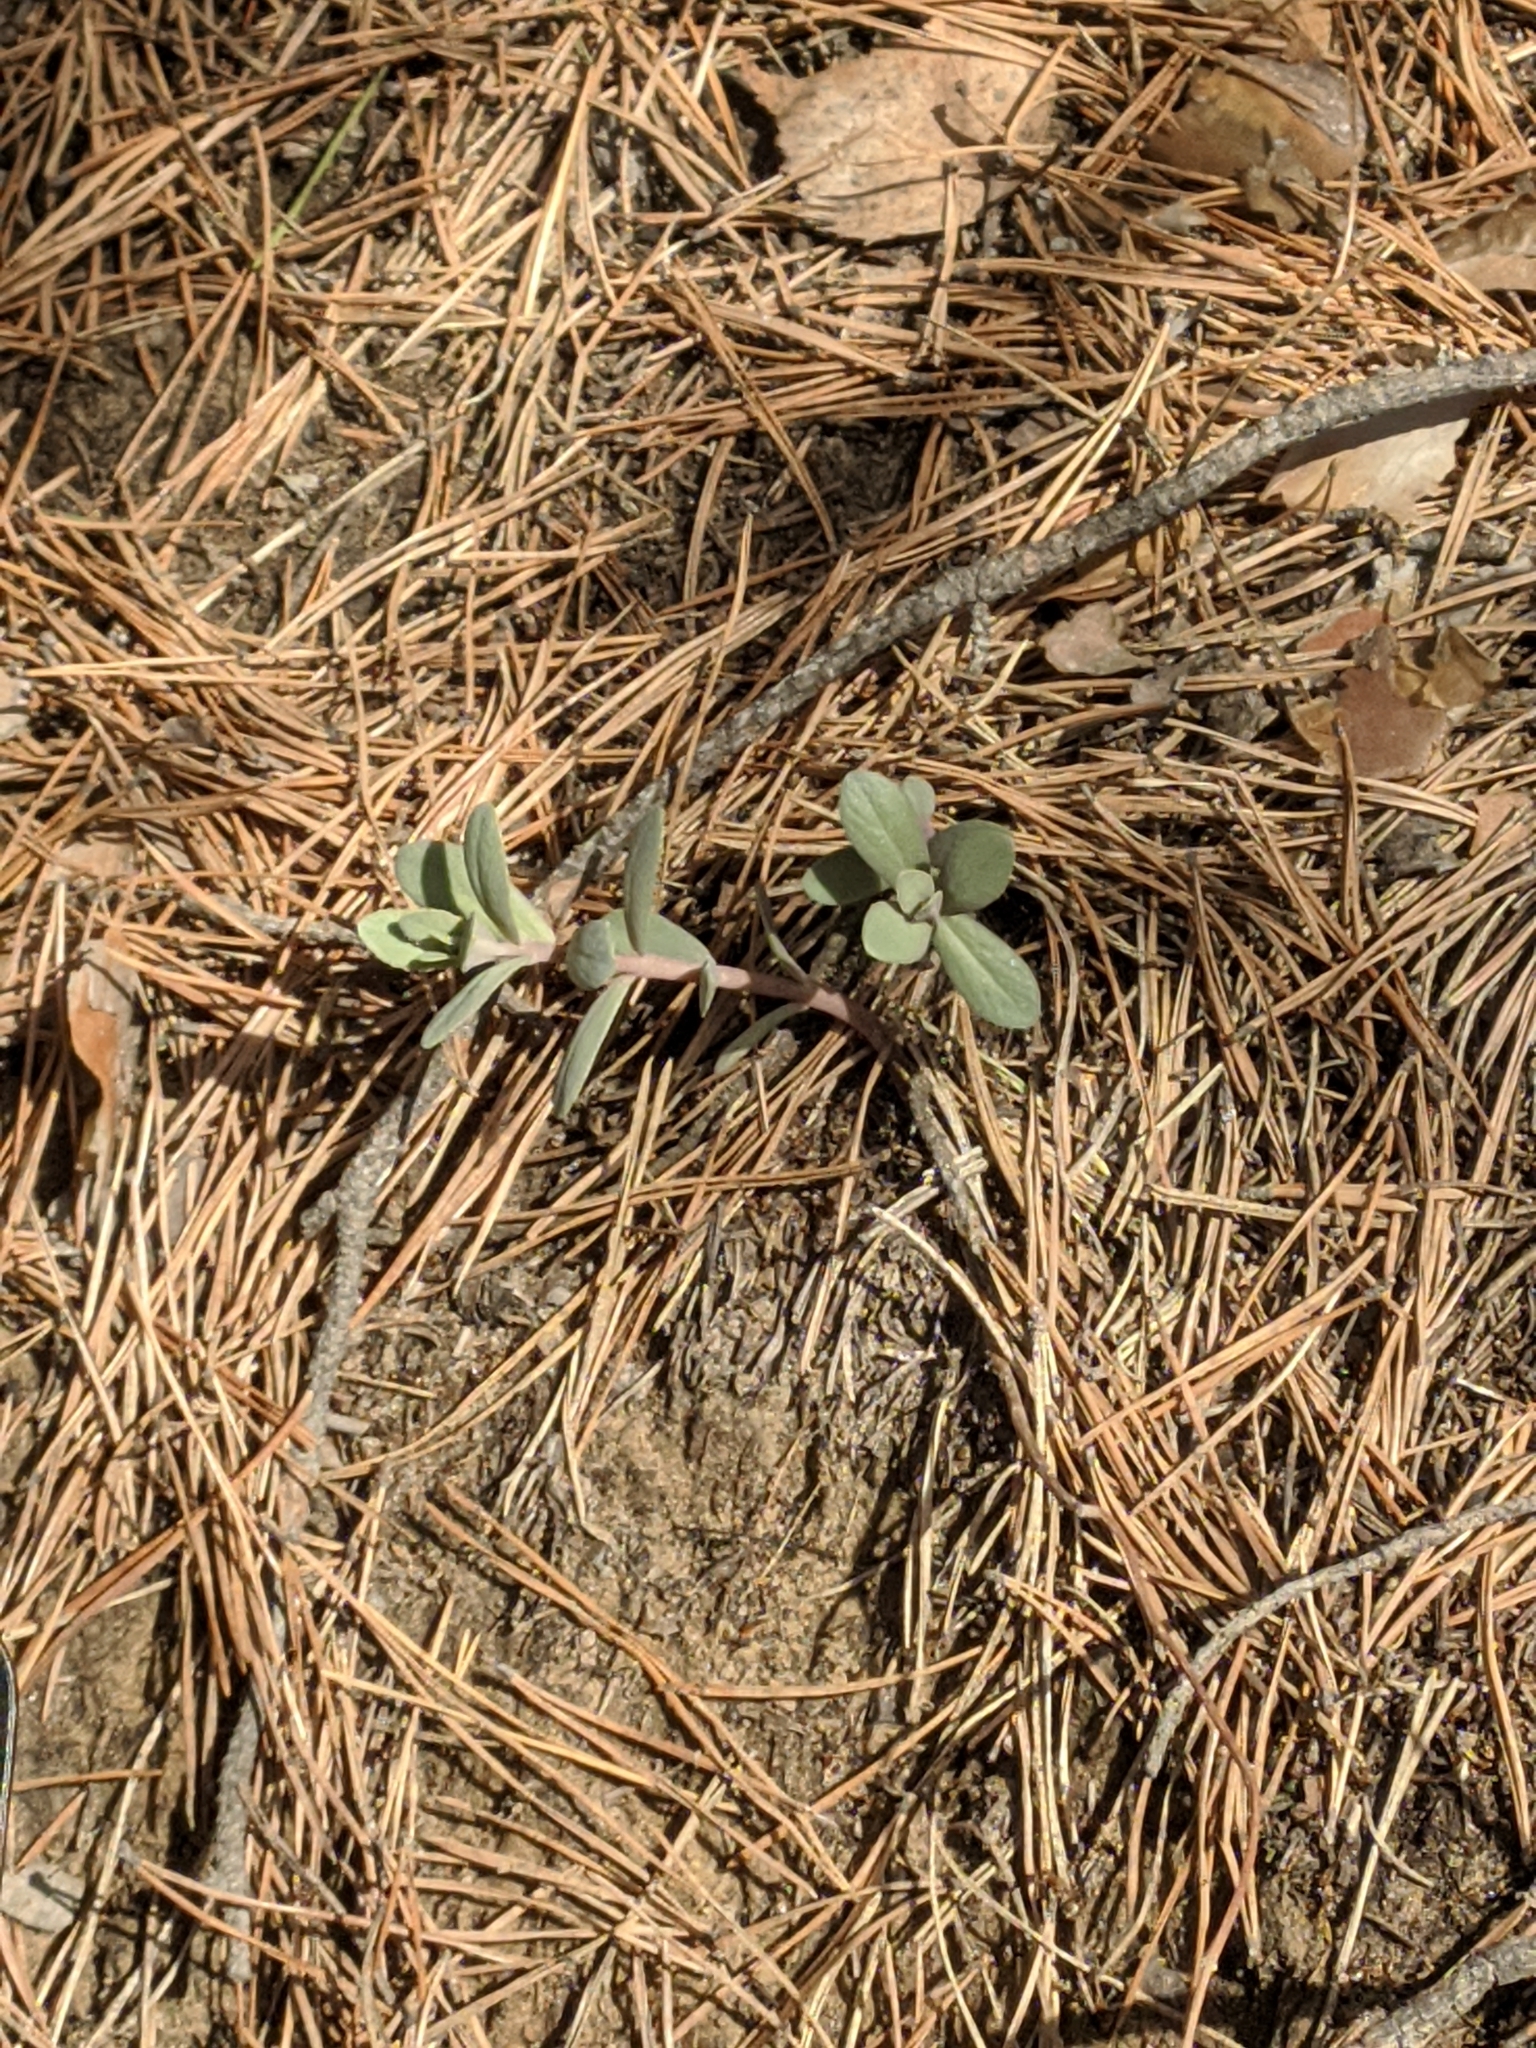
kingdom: Plantae
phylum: Tracheophyta
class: Magnoliopsida
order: Saxifragales
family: Crassulaceae
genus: Hylotelephium
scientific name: Hylotelephium maximum
